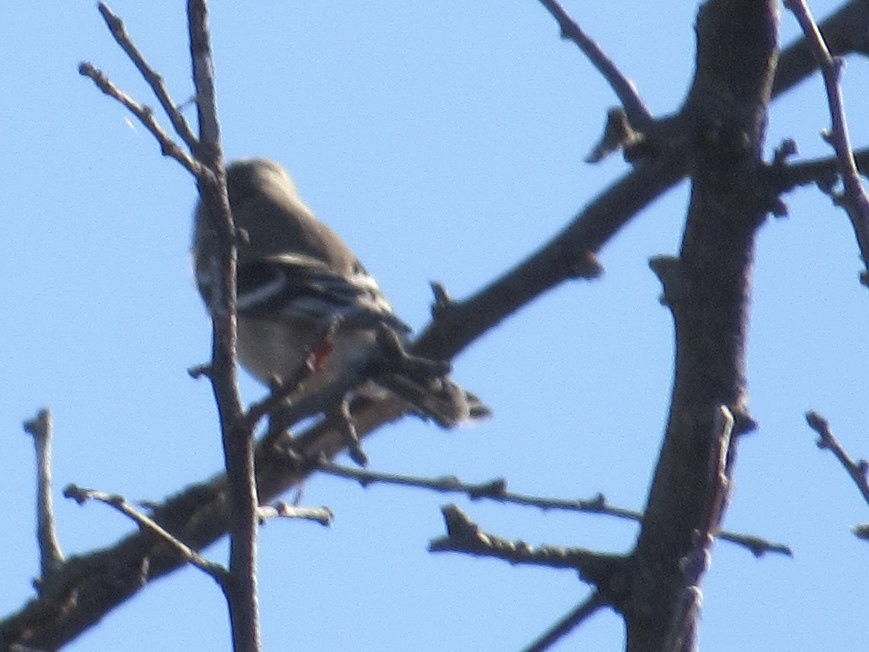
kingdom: Animalia
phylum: Chordata
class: Aves
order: Passeriformes
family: Fringillidae
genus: Spinus
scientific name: Spinus tristis
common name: American goldfinch
